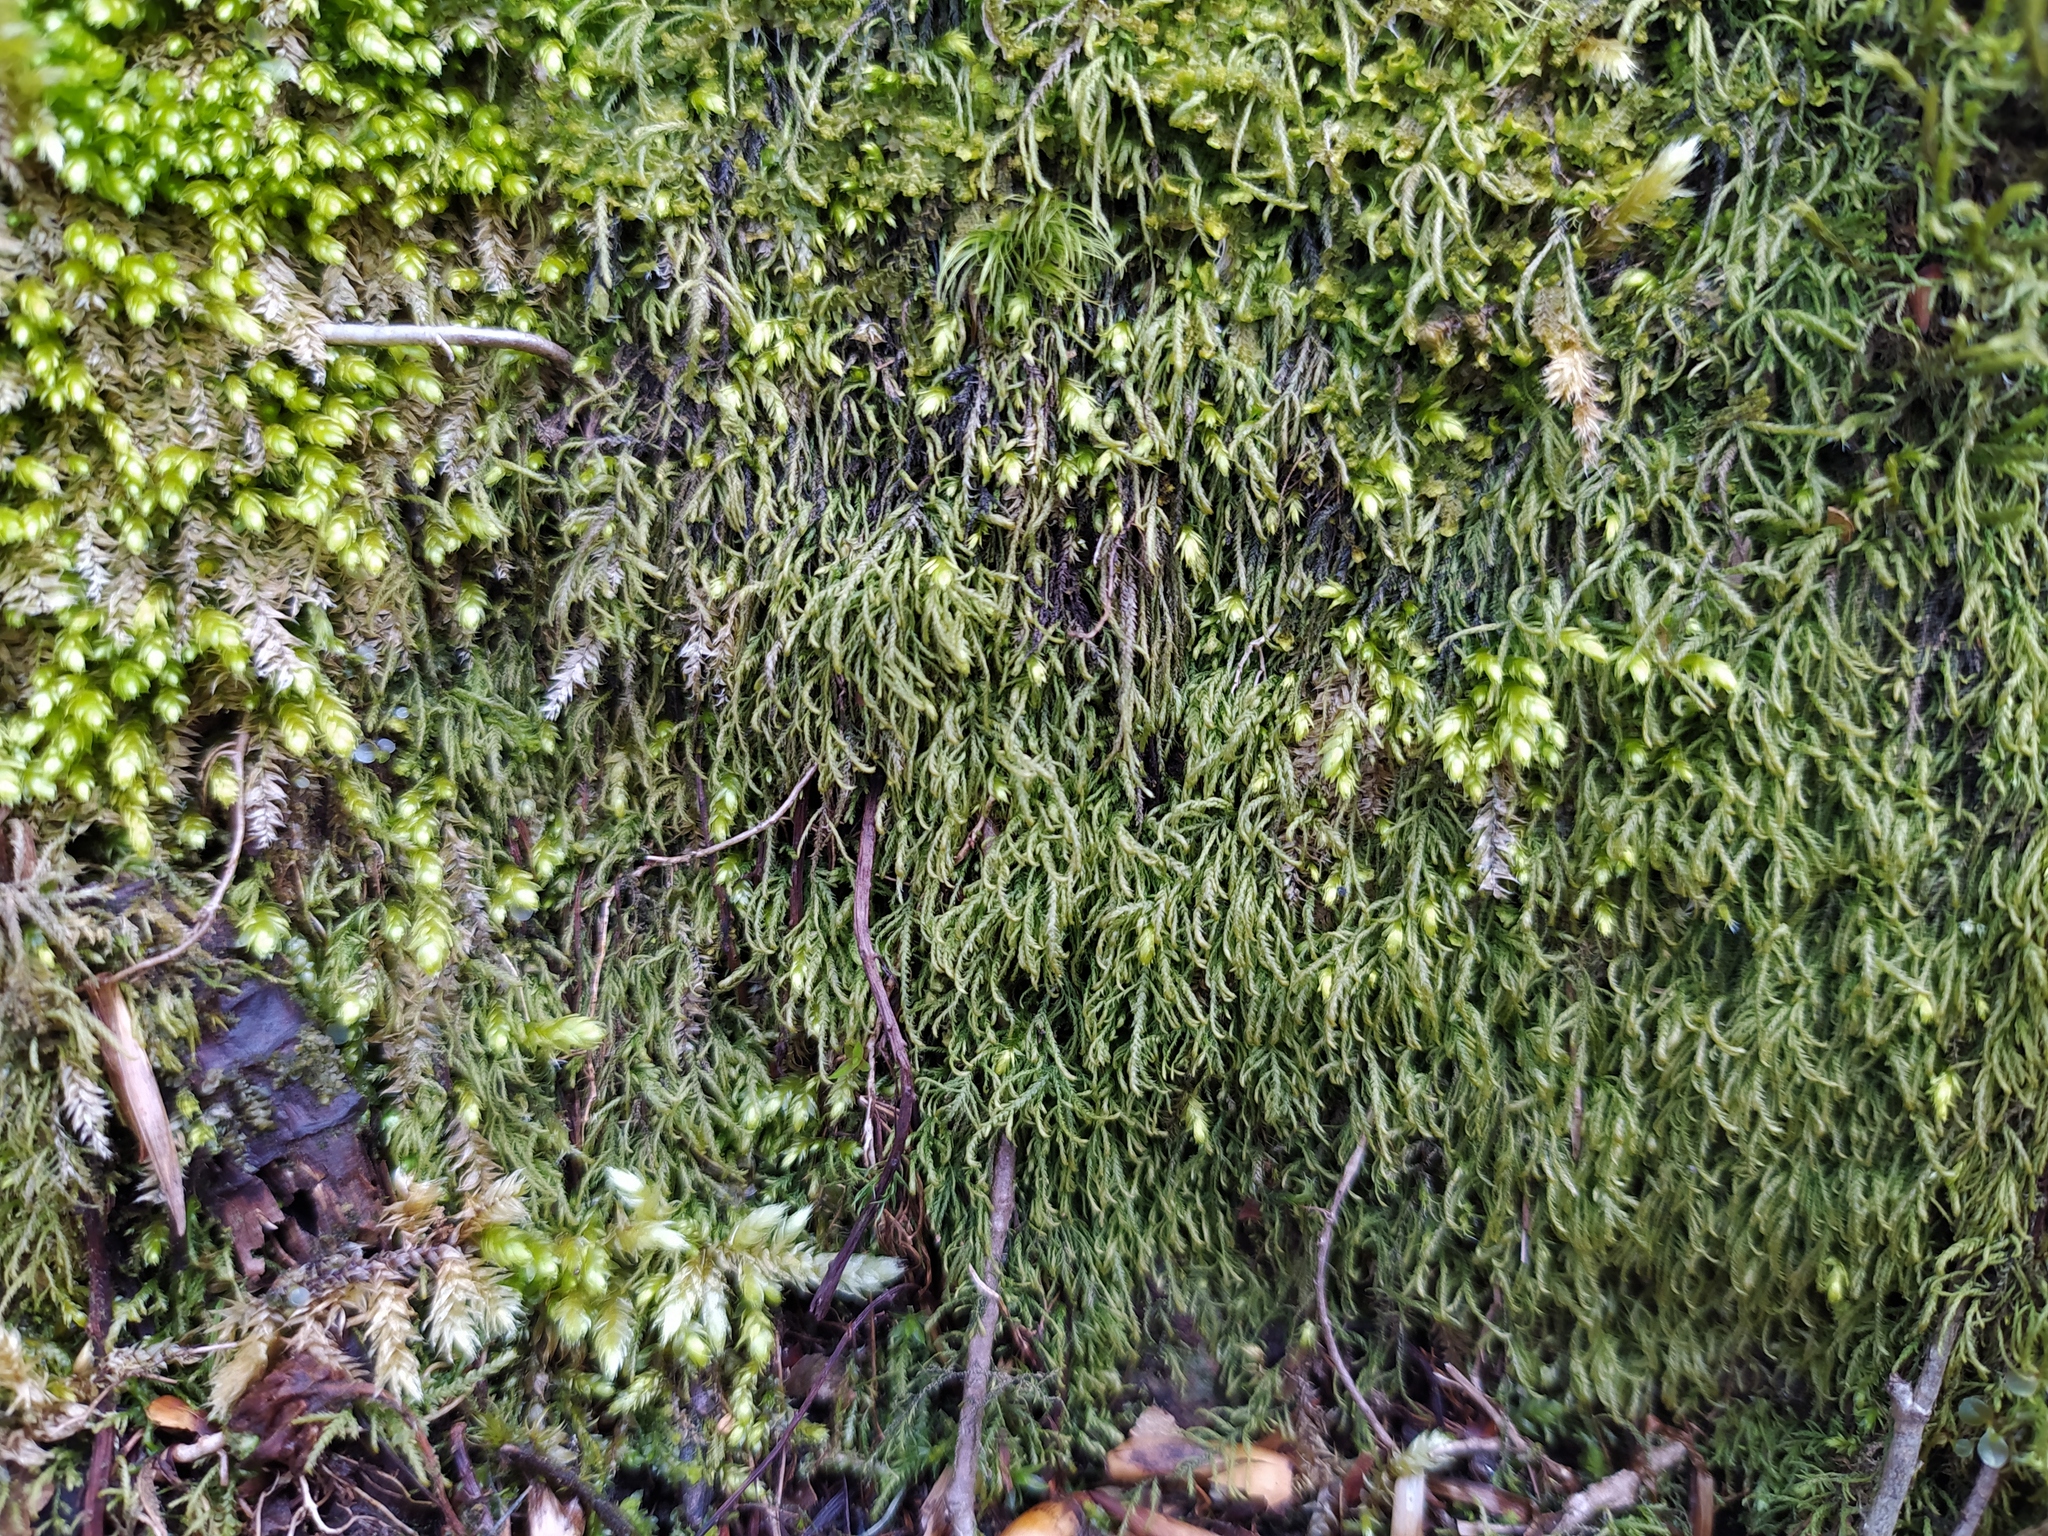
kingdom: Plantae
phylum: Bryophyta
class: Bryopsida
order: Hypnales
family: Lembophyllaceae
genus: Heterocladium
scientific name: Heterocladium heteropterum
